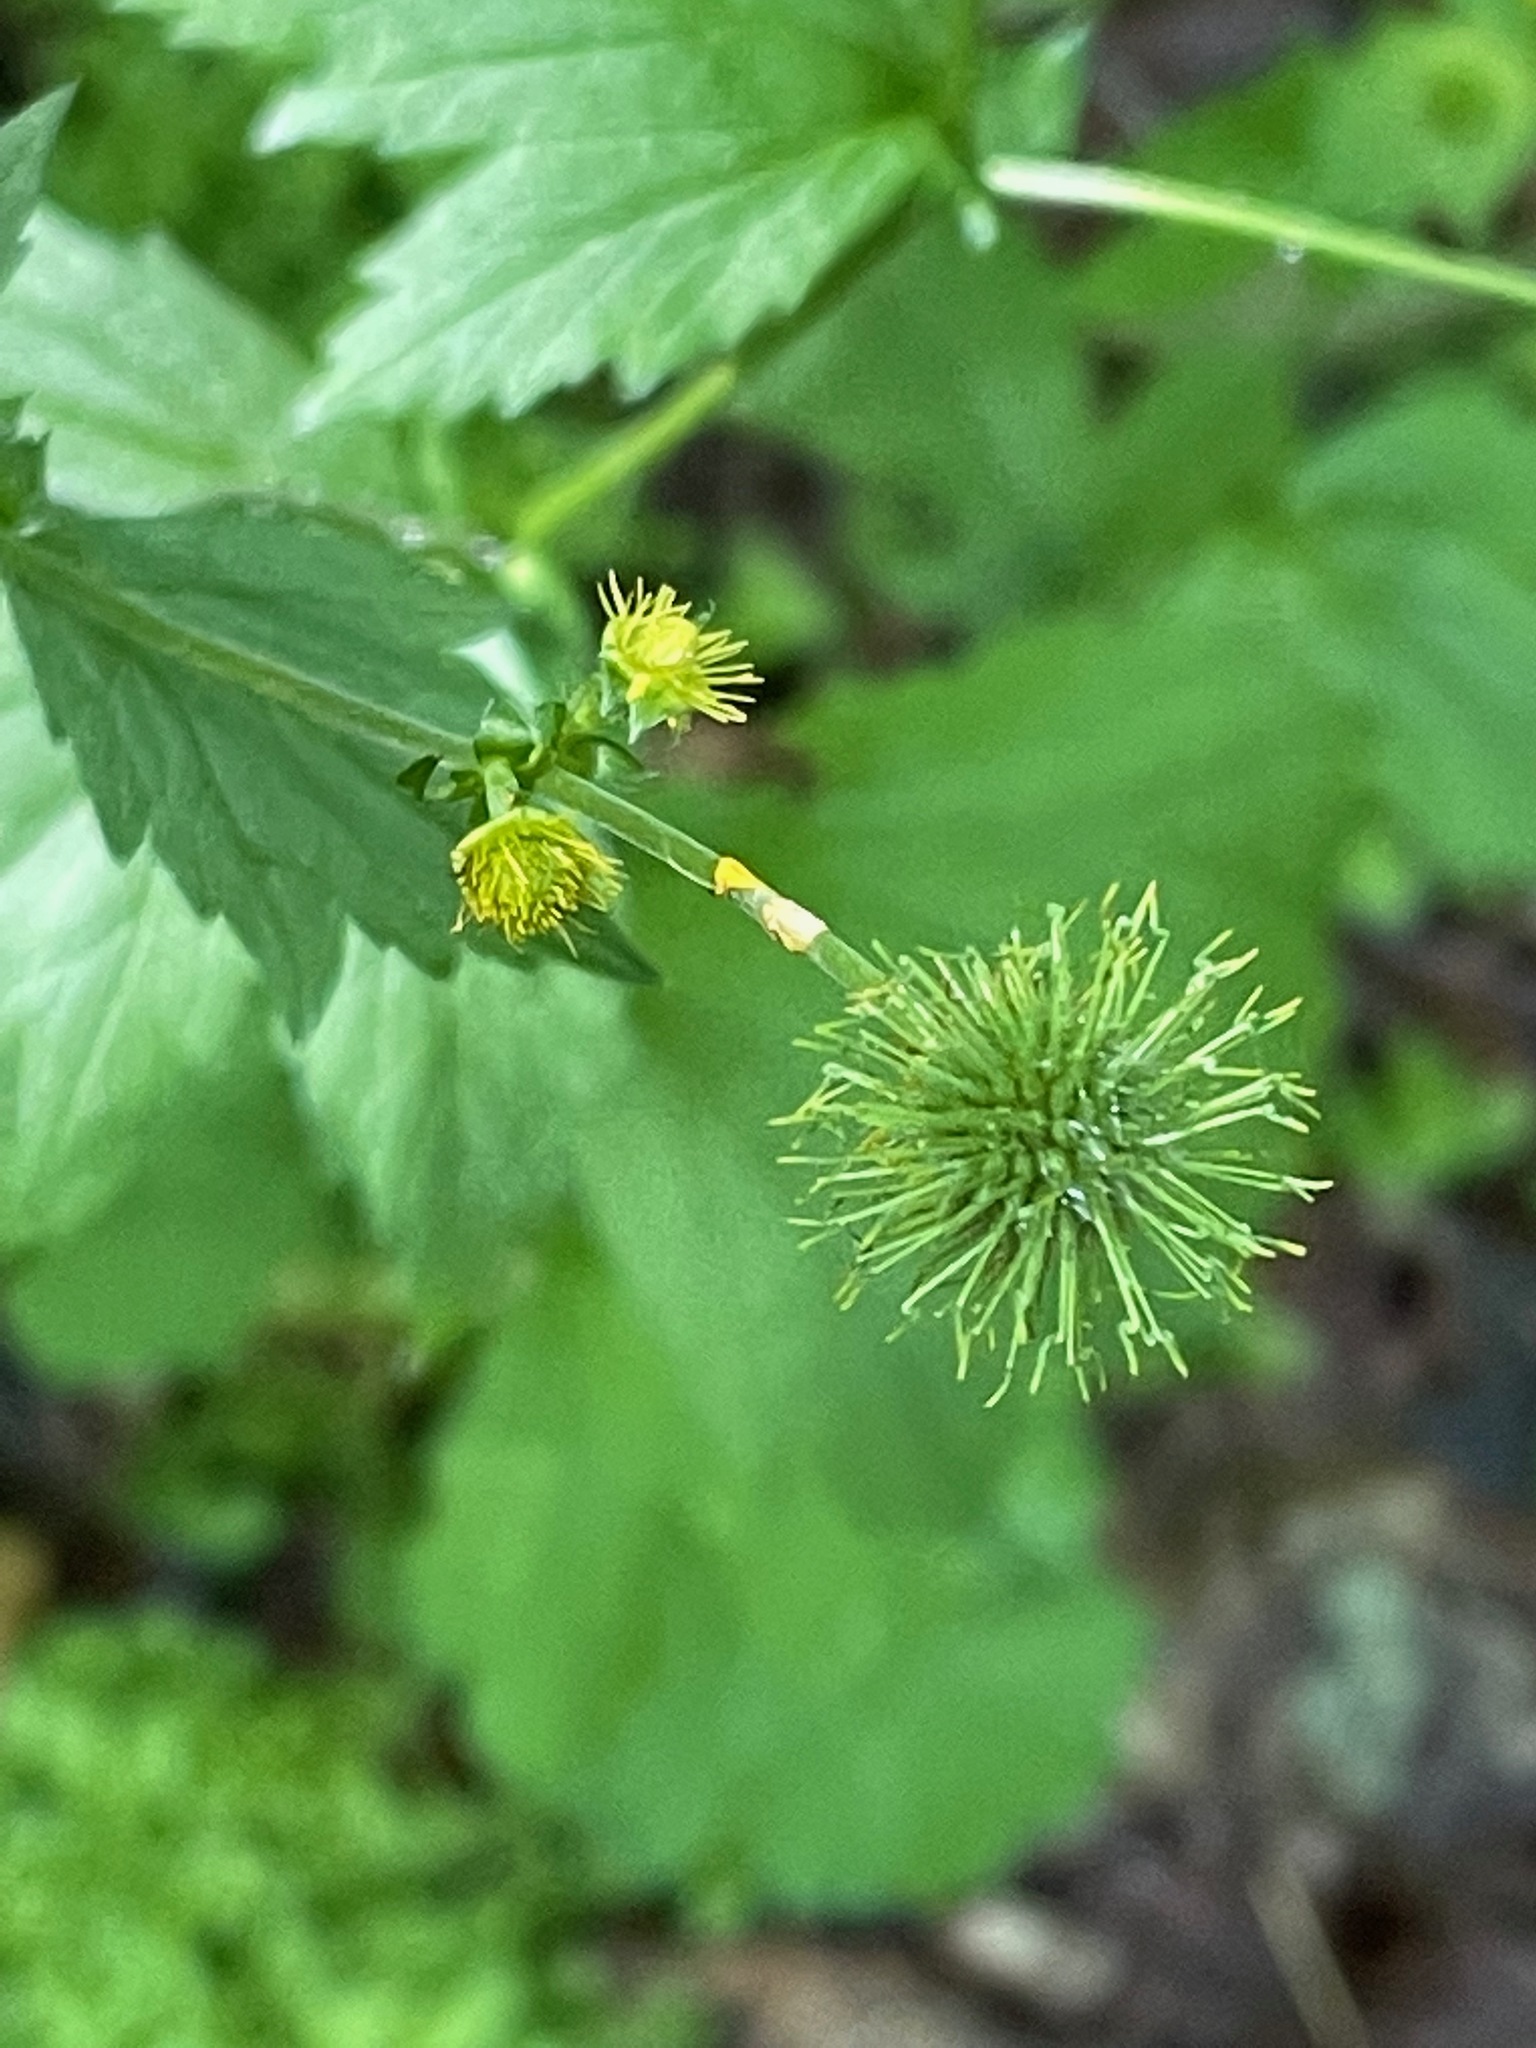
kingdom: Plantae
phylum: Tracheophyta
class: Magnoliopsida
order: Rosales
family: Rosaceae
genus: Geum
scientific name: Geum macrophyllum
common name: Large-leaved avens
